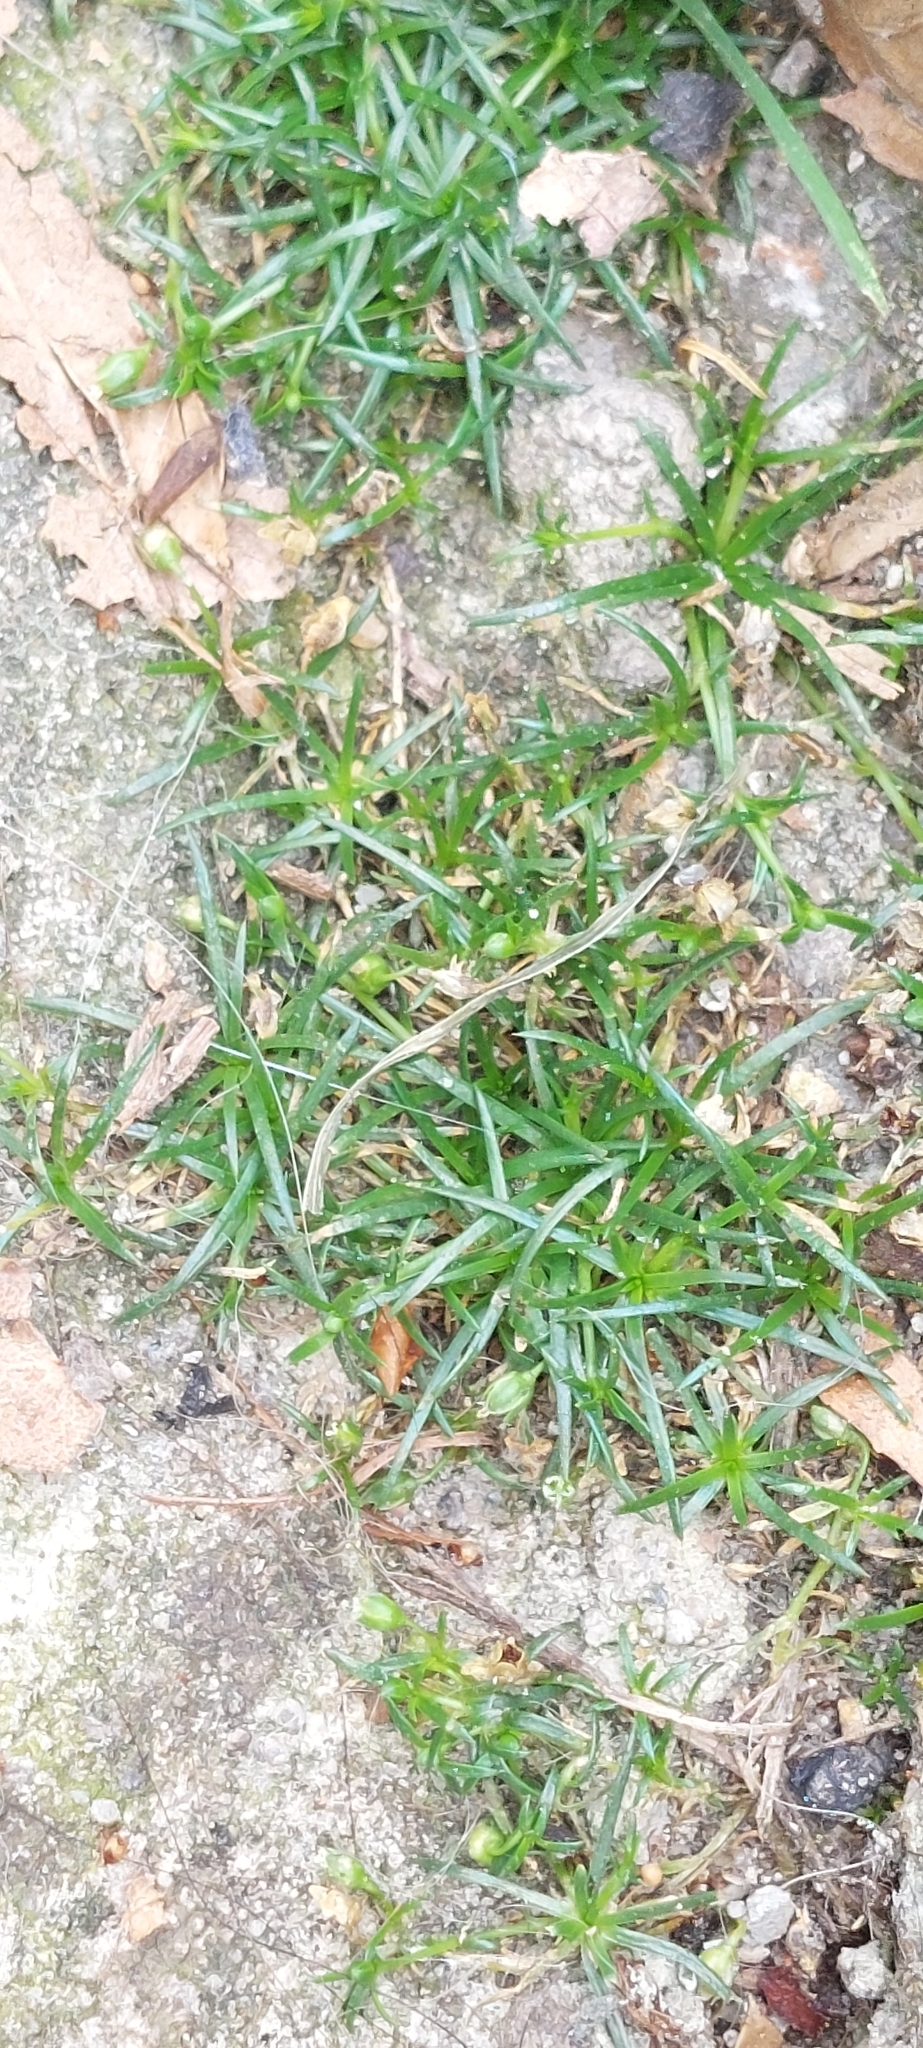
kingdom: Plantae
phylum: Tracheophyta
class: Magnoliopsida
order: Caryophyllales
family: Caryophyllaceae
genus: Sagina
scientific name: Sagina procumbens
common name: Procumbent pearlwort
